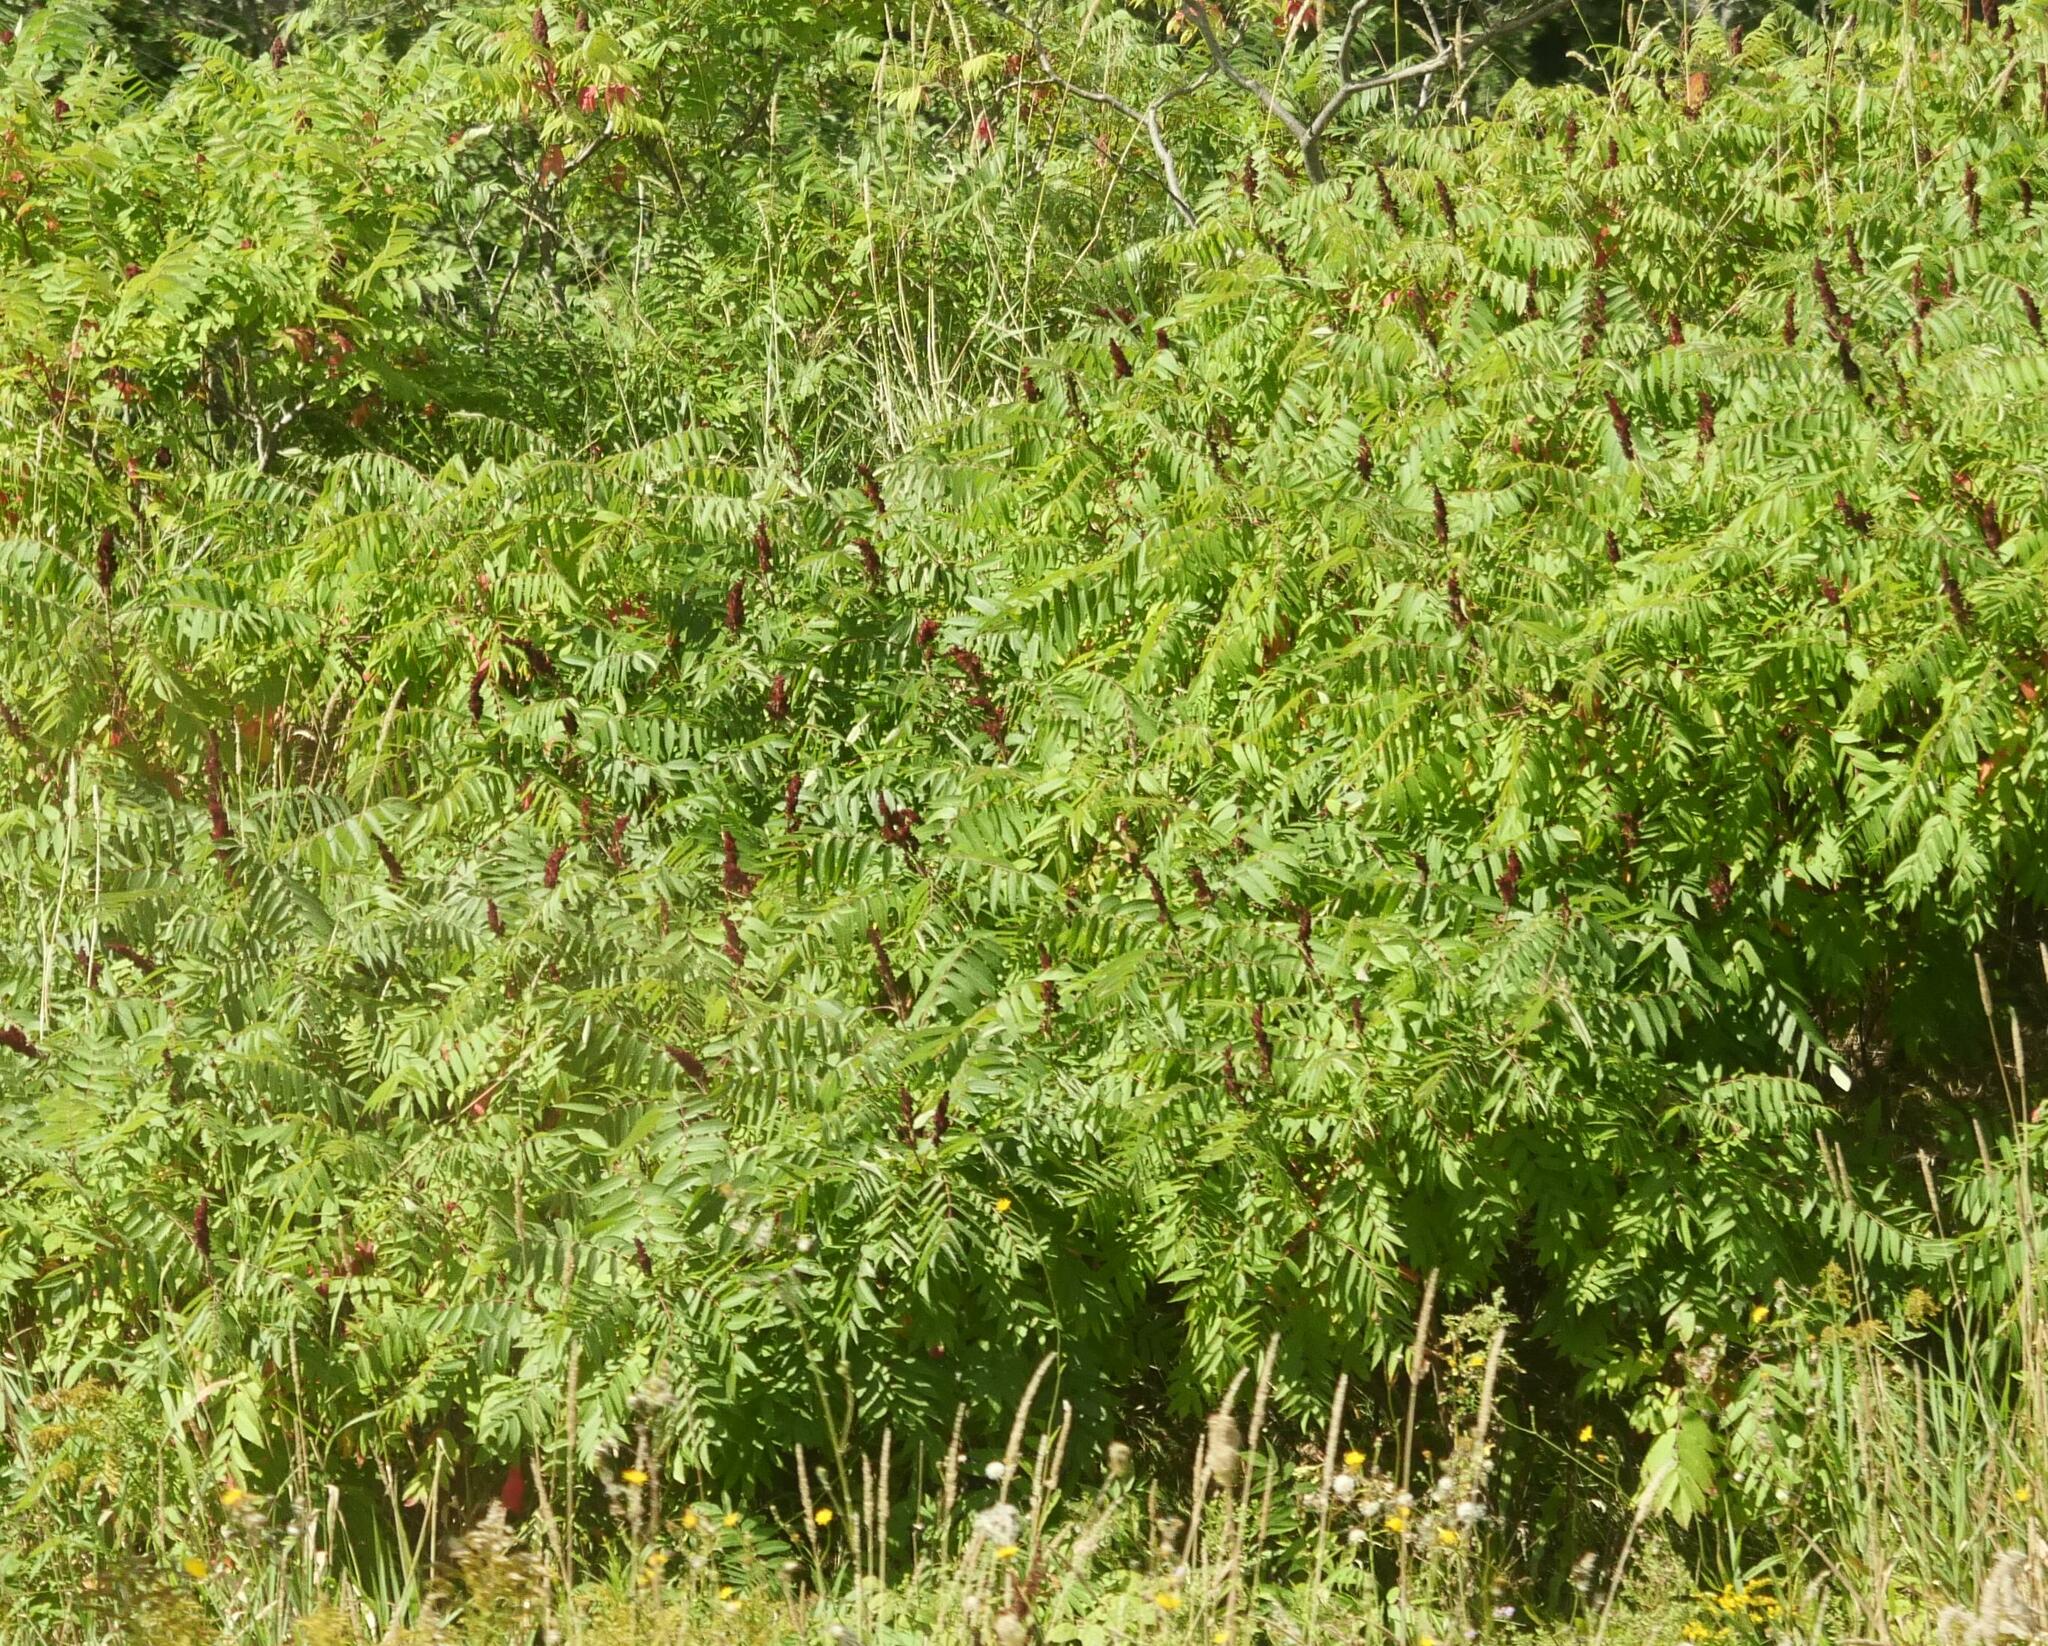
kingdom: Plantae
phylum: Tracheophyta
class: Magnoliopsida
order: Sapindales
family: Anacardiaceae
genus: Rhus
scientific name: Rhus typhina
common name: Staghorn sumac
